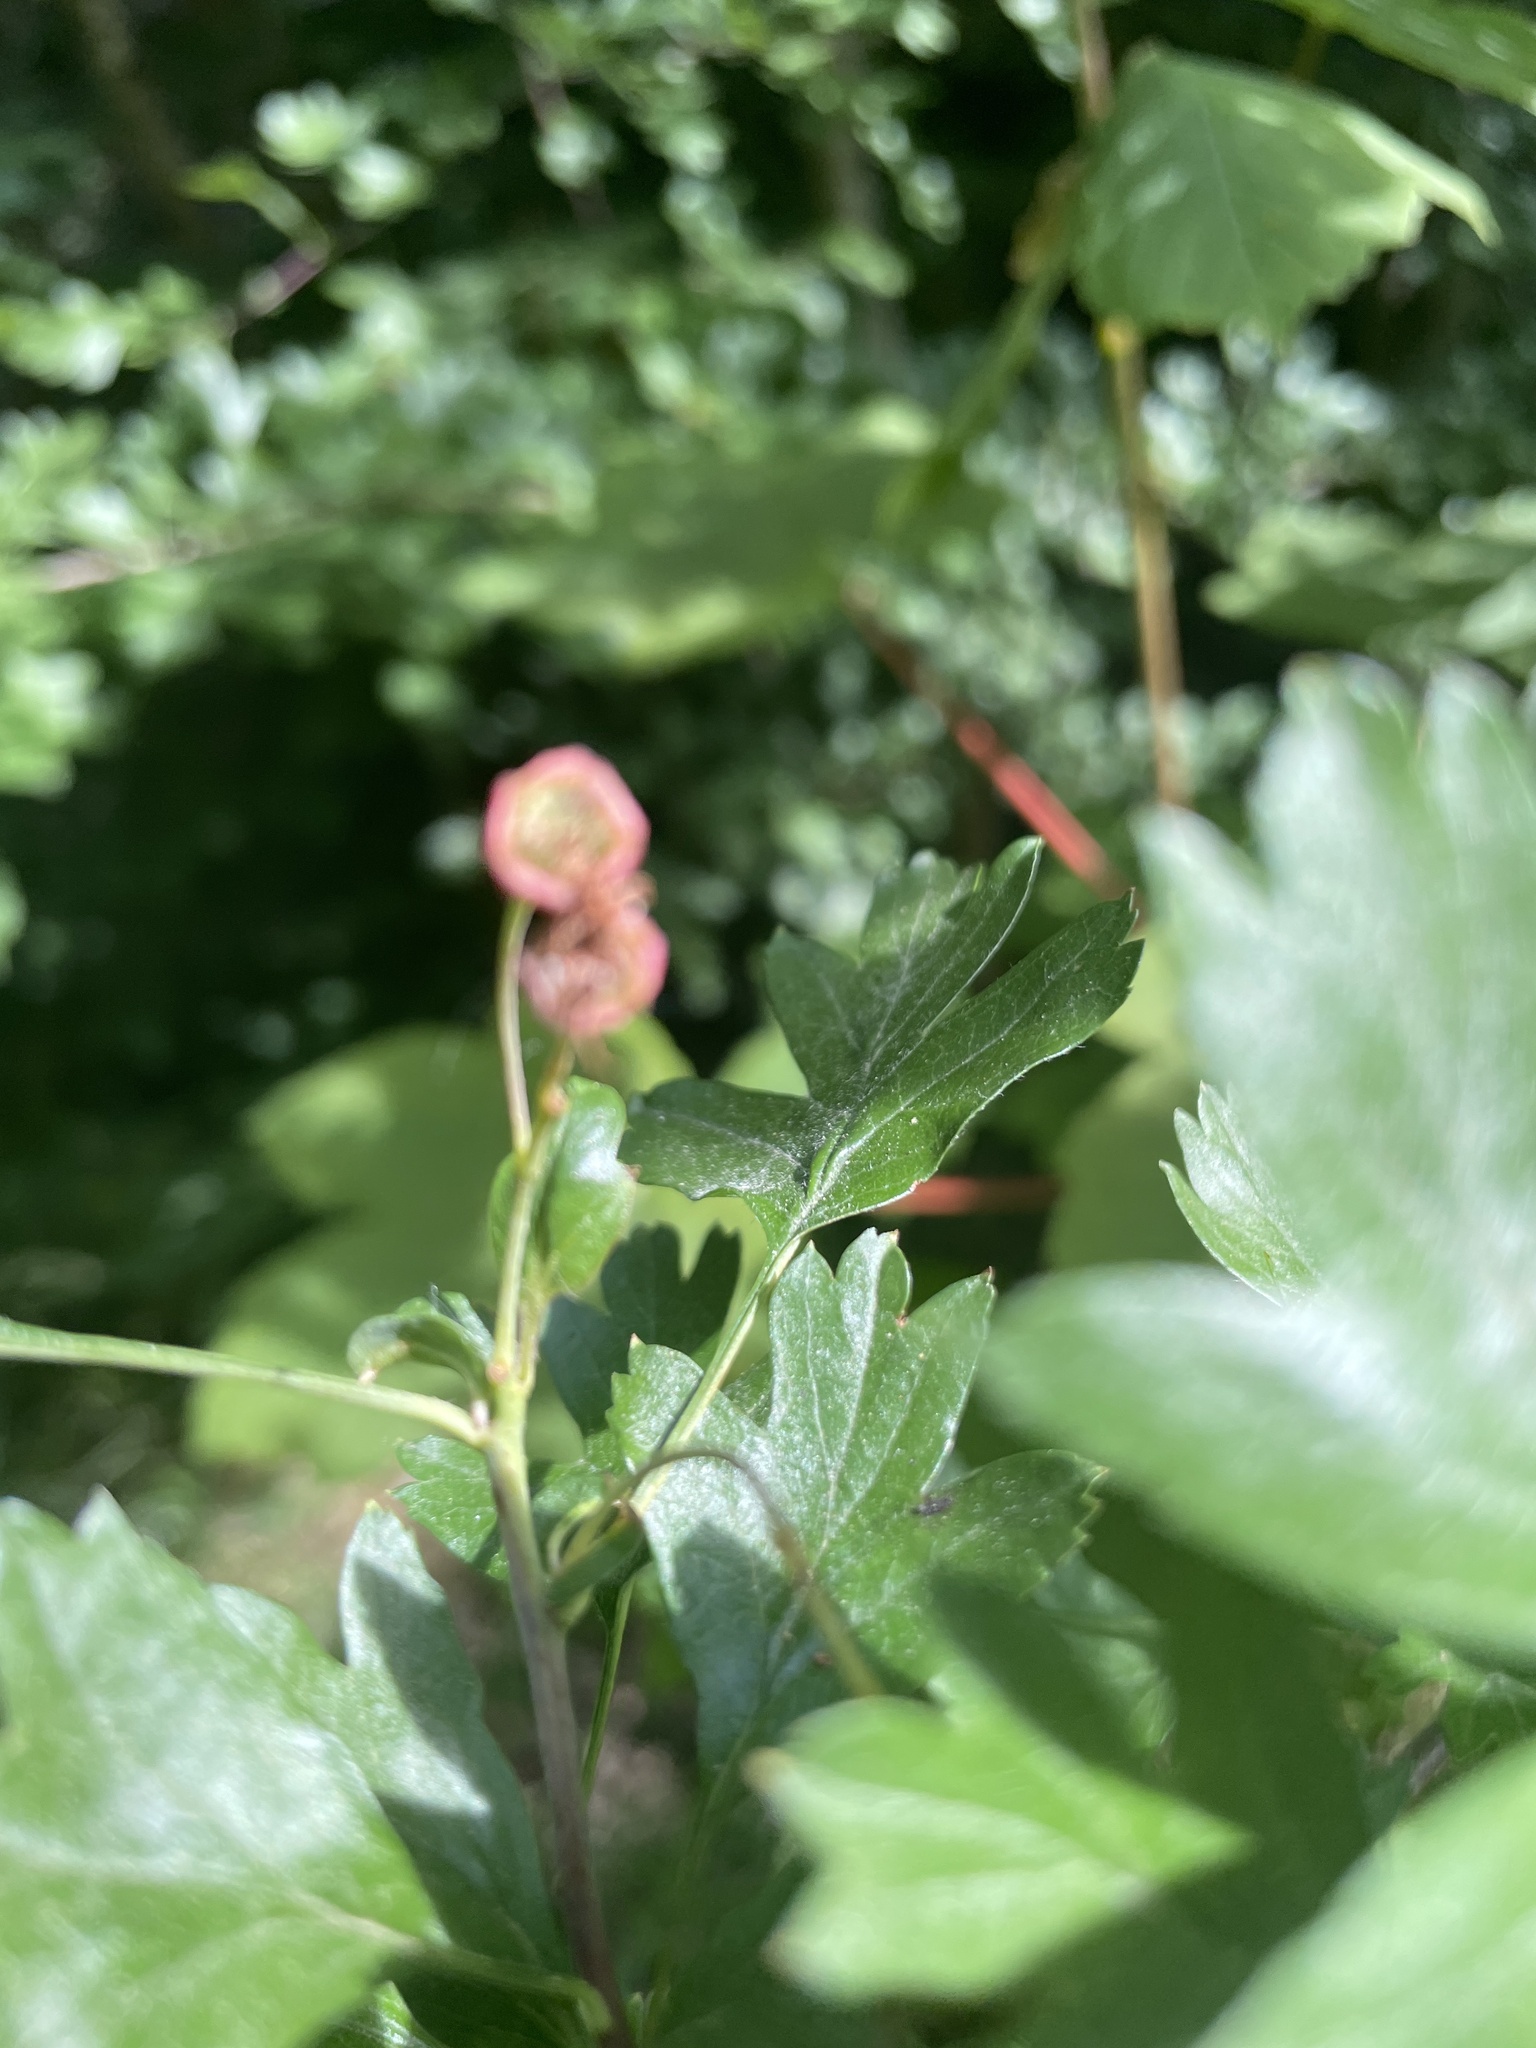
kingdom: Plantae
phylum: Tracheophyta
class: Magnoliopsida
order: Rosales
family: Rosaceae
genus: Crataegus
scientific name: Crataegus monogyna
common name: Hawthorn
